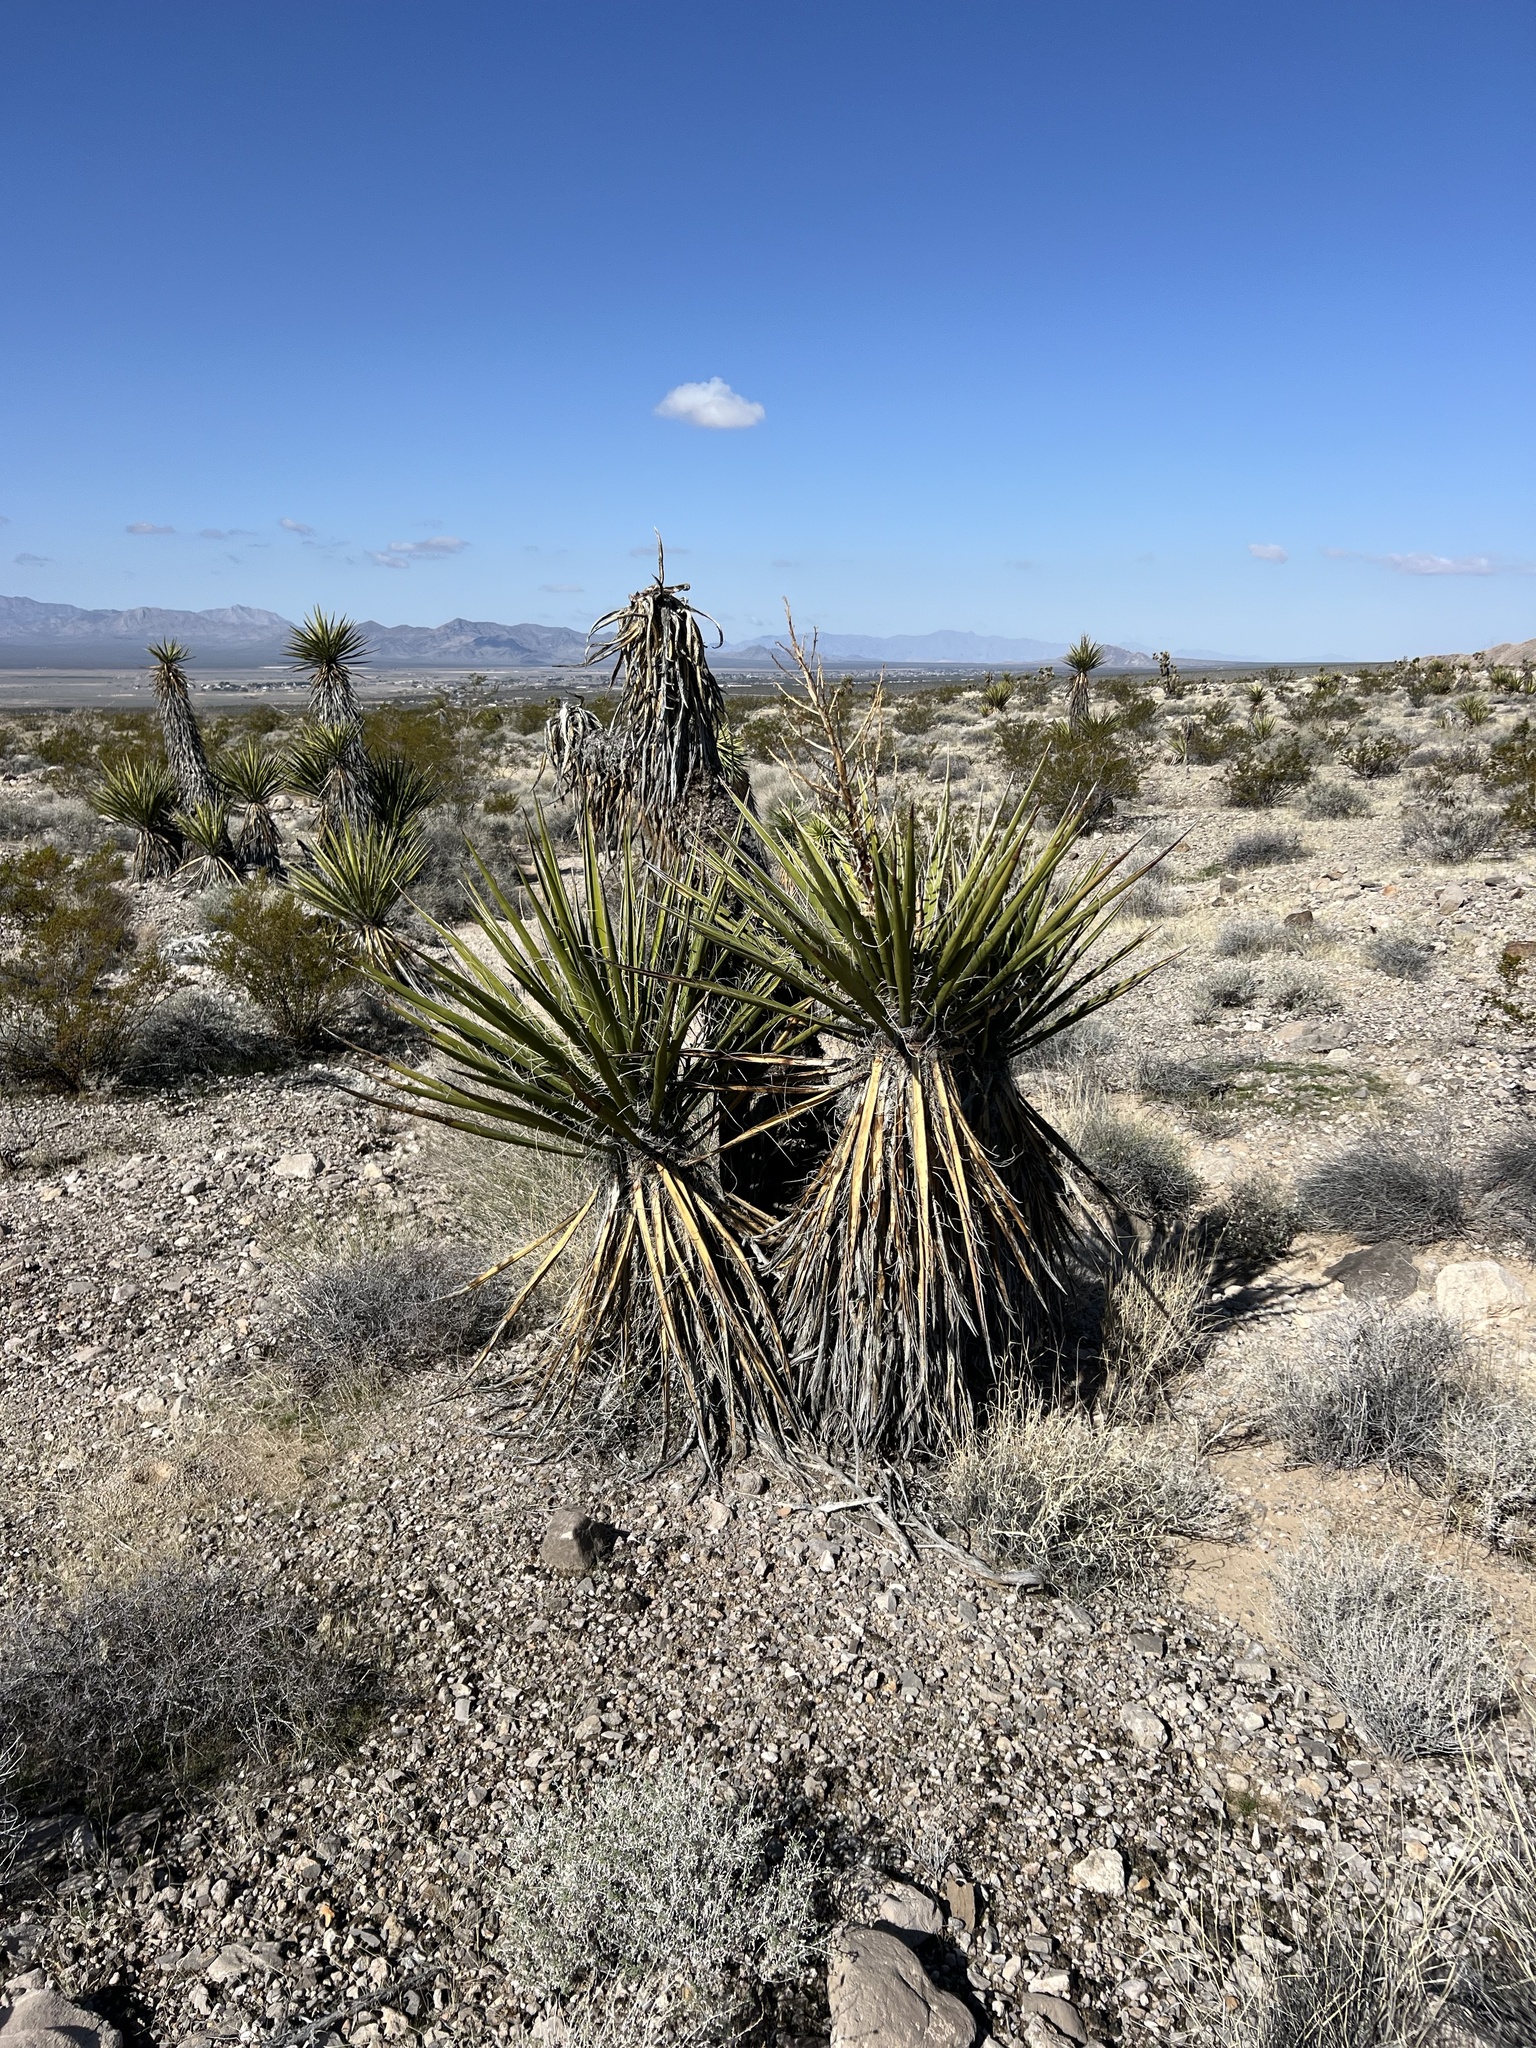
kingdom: Plantae
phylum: Tracheophyta
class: Liliopsida
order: Asparagales
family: Asparagaceae
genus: Yucca
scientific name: Yucca schidigera
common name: Mojave yucca
